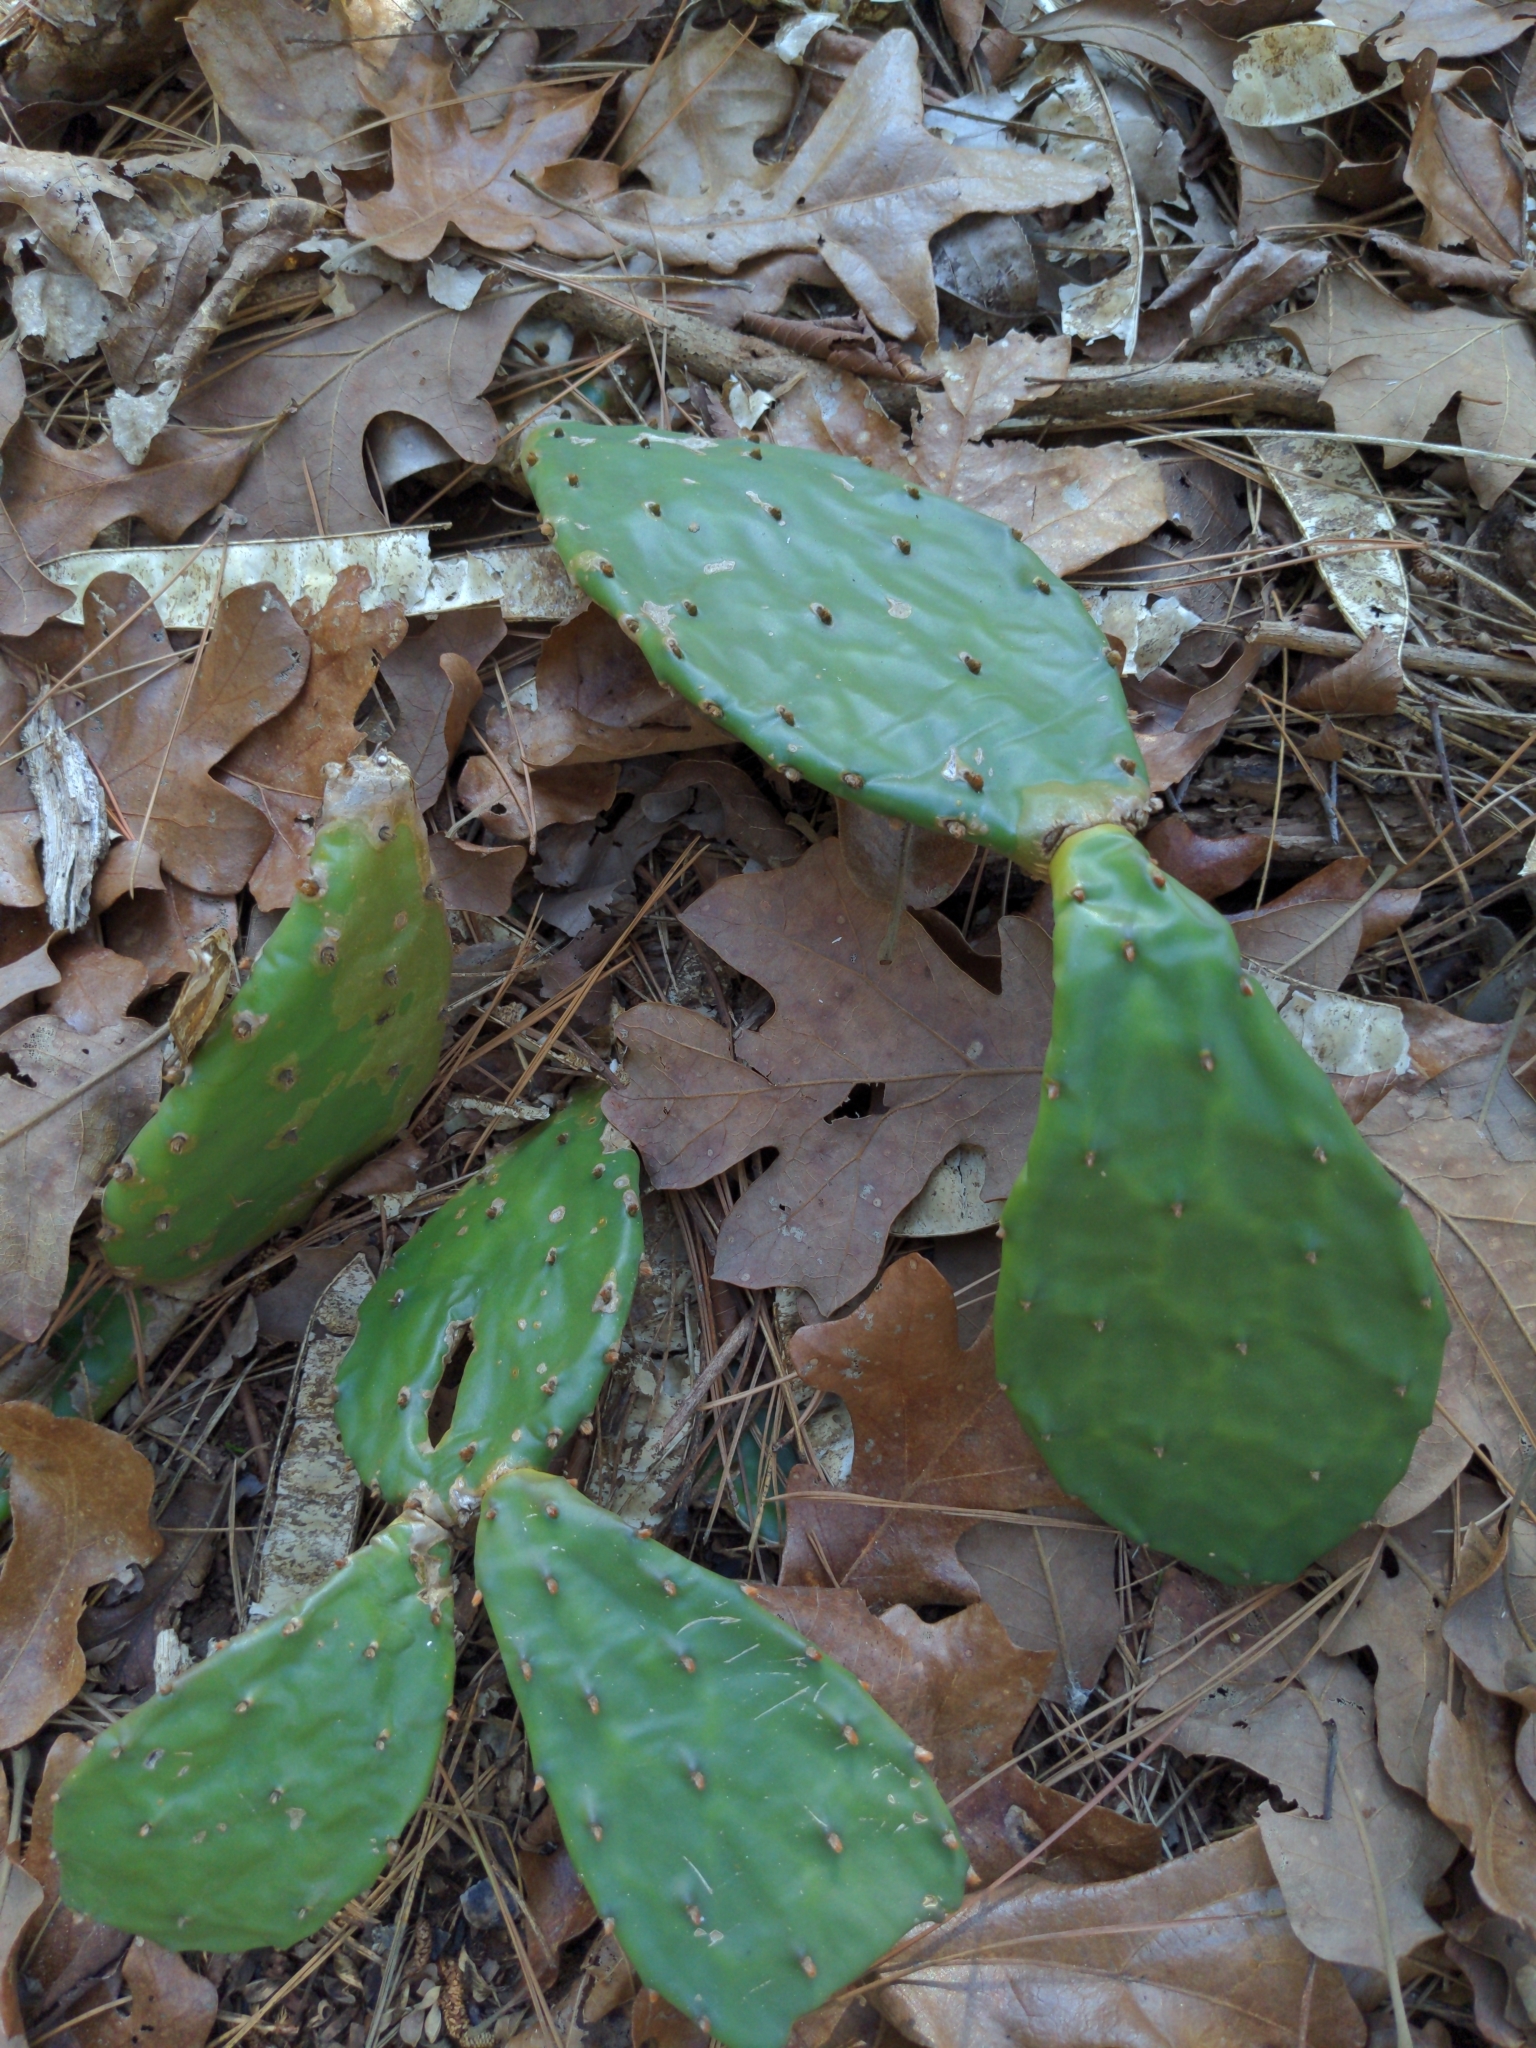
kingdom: Plantae
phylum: Tracheophyta
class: Magnoliopsida
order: Caryophyllales
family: Cactaceae
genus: Opuntia
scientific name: Opuntia macrorhiza
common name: Grassland pricklypear
